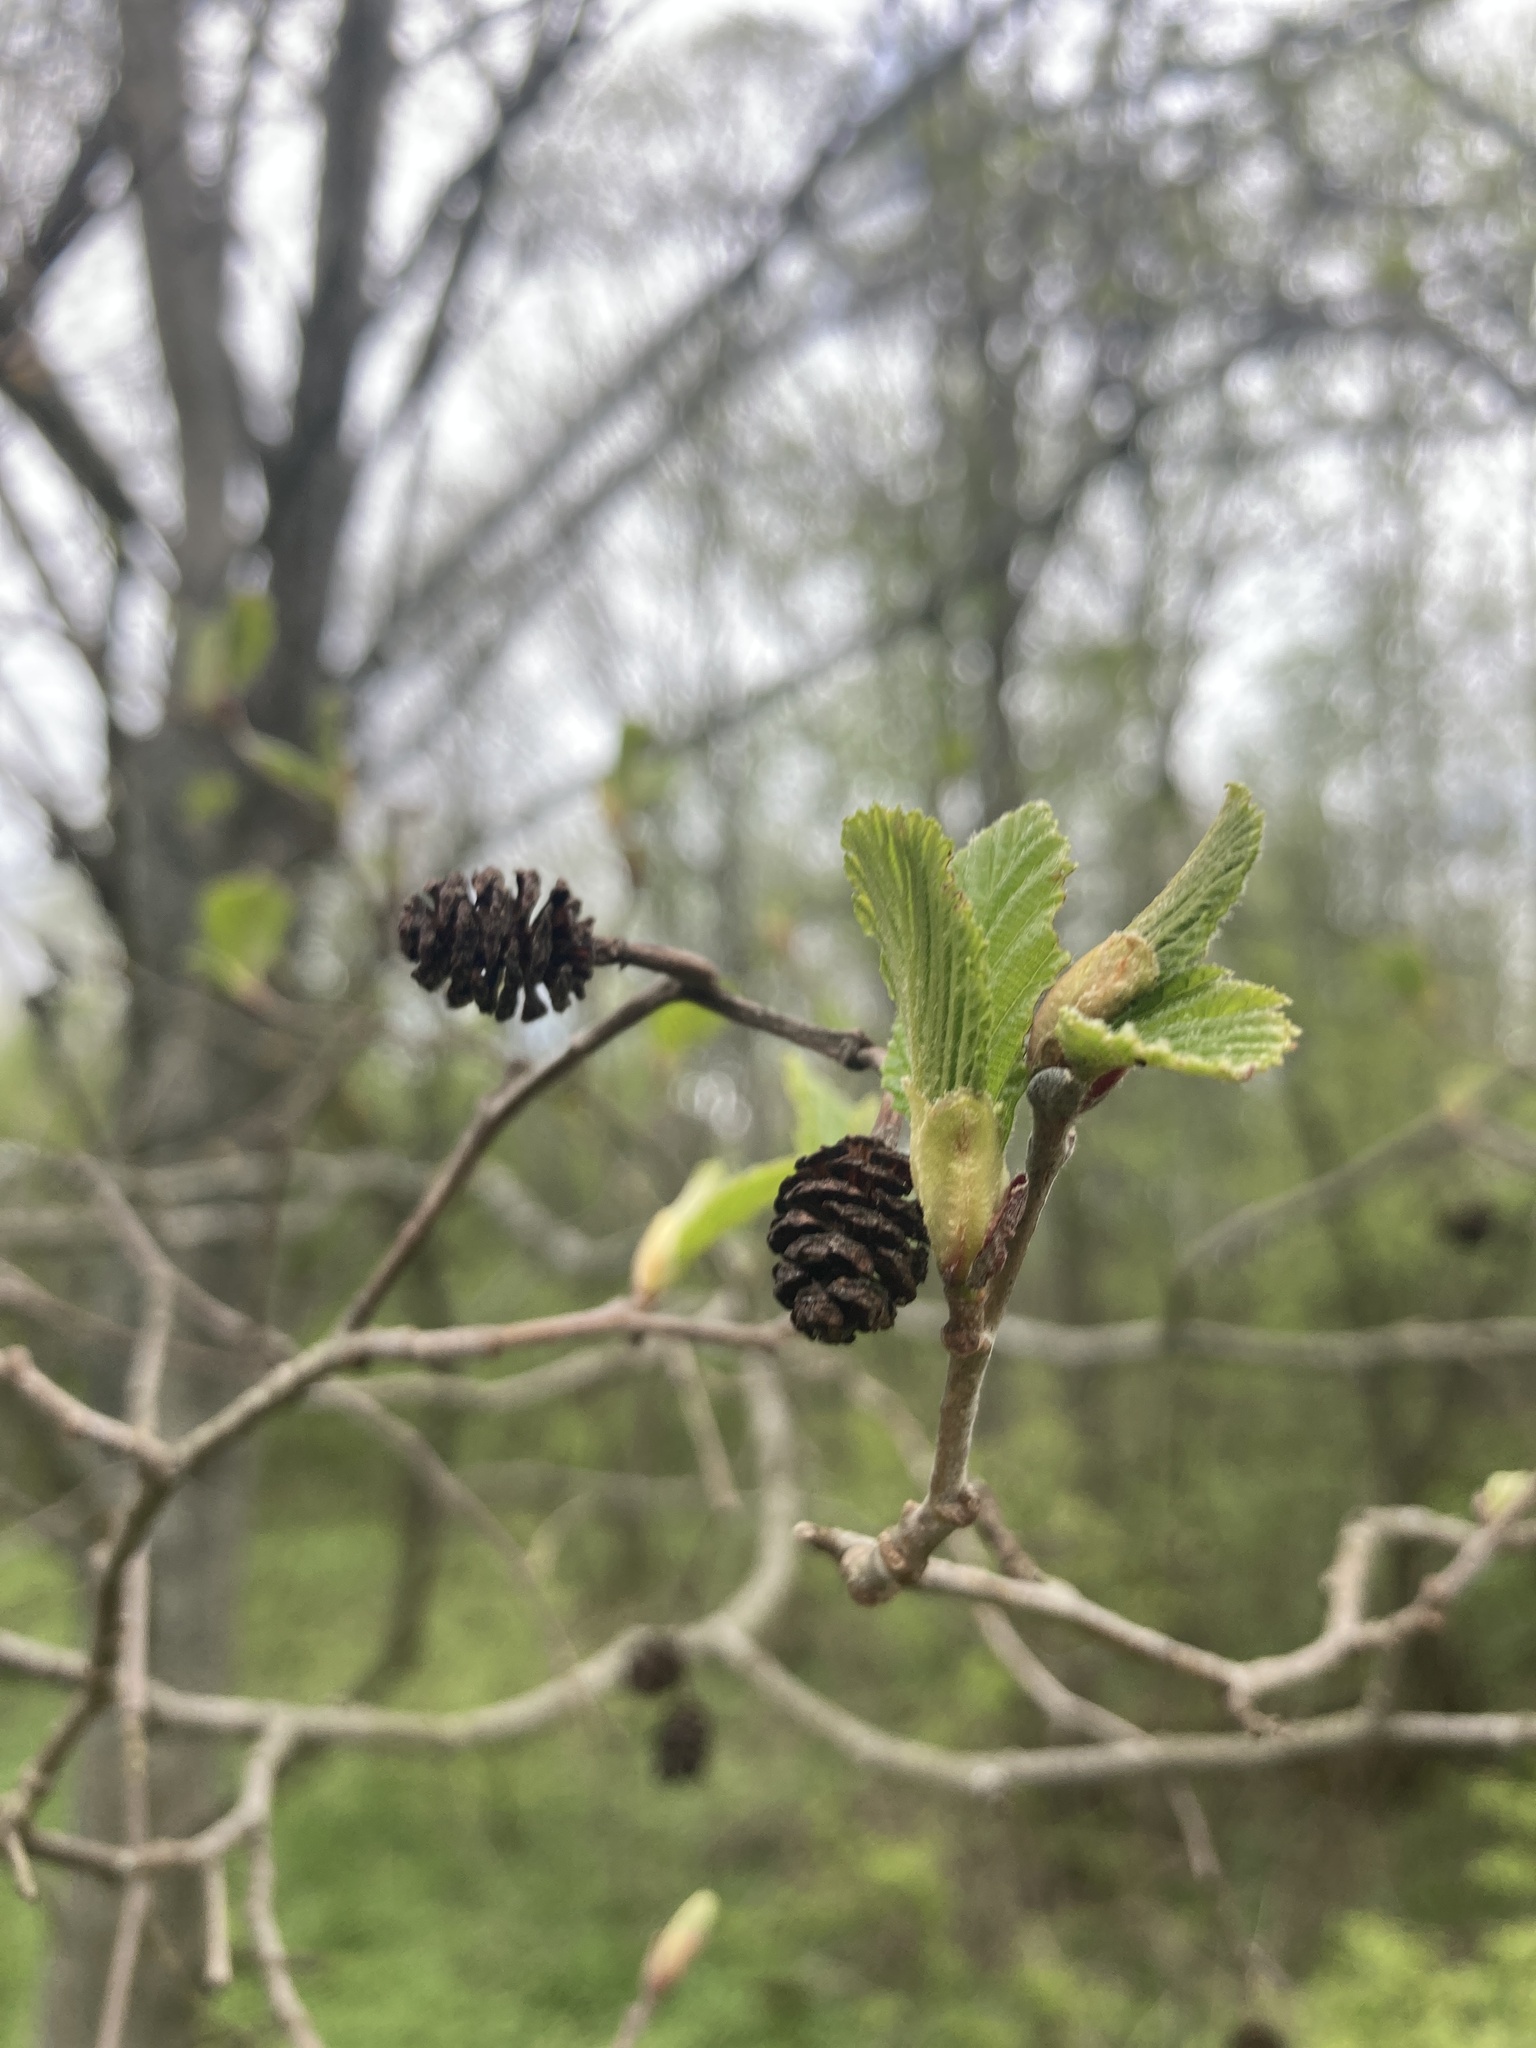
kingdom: Plantae
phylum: Tracheophyta
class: Magnoliopsida
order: Fagales
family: Betulaceae
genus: Alnus
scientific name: Alnus incana
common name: Grey alder
